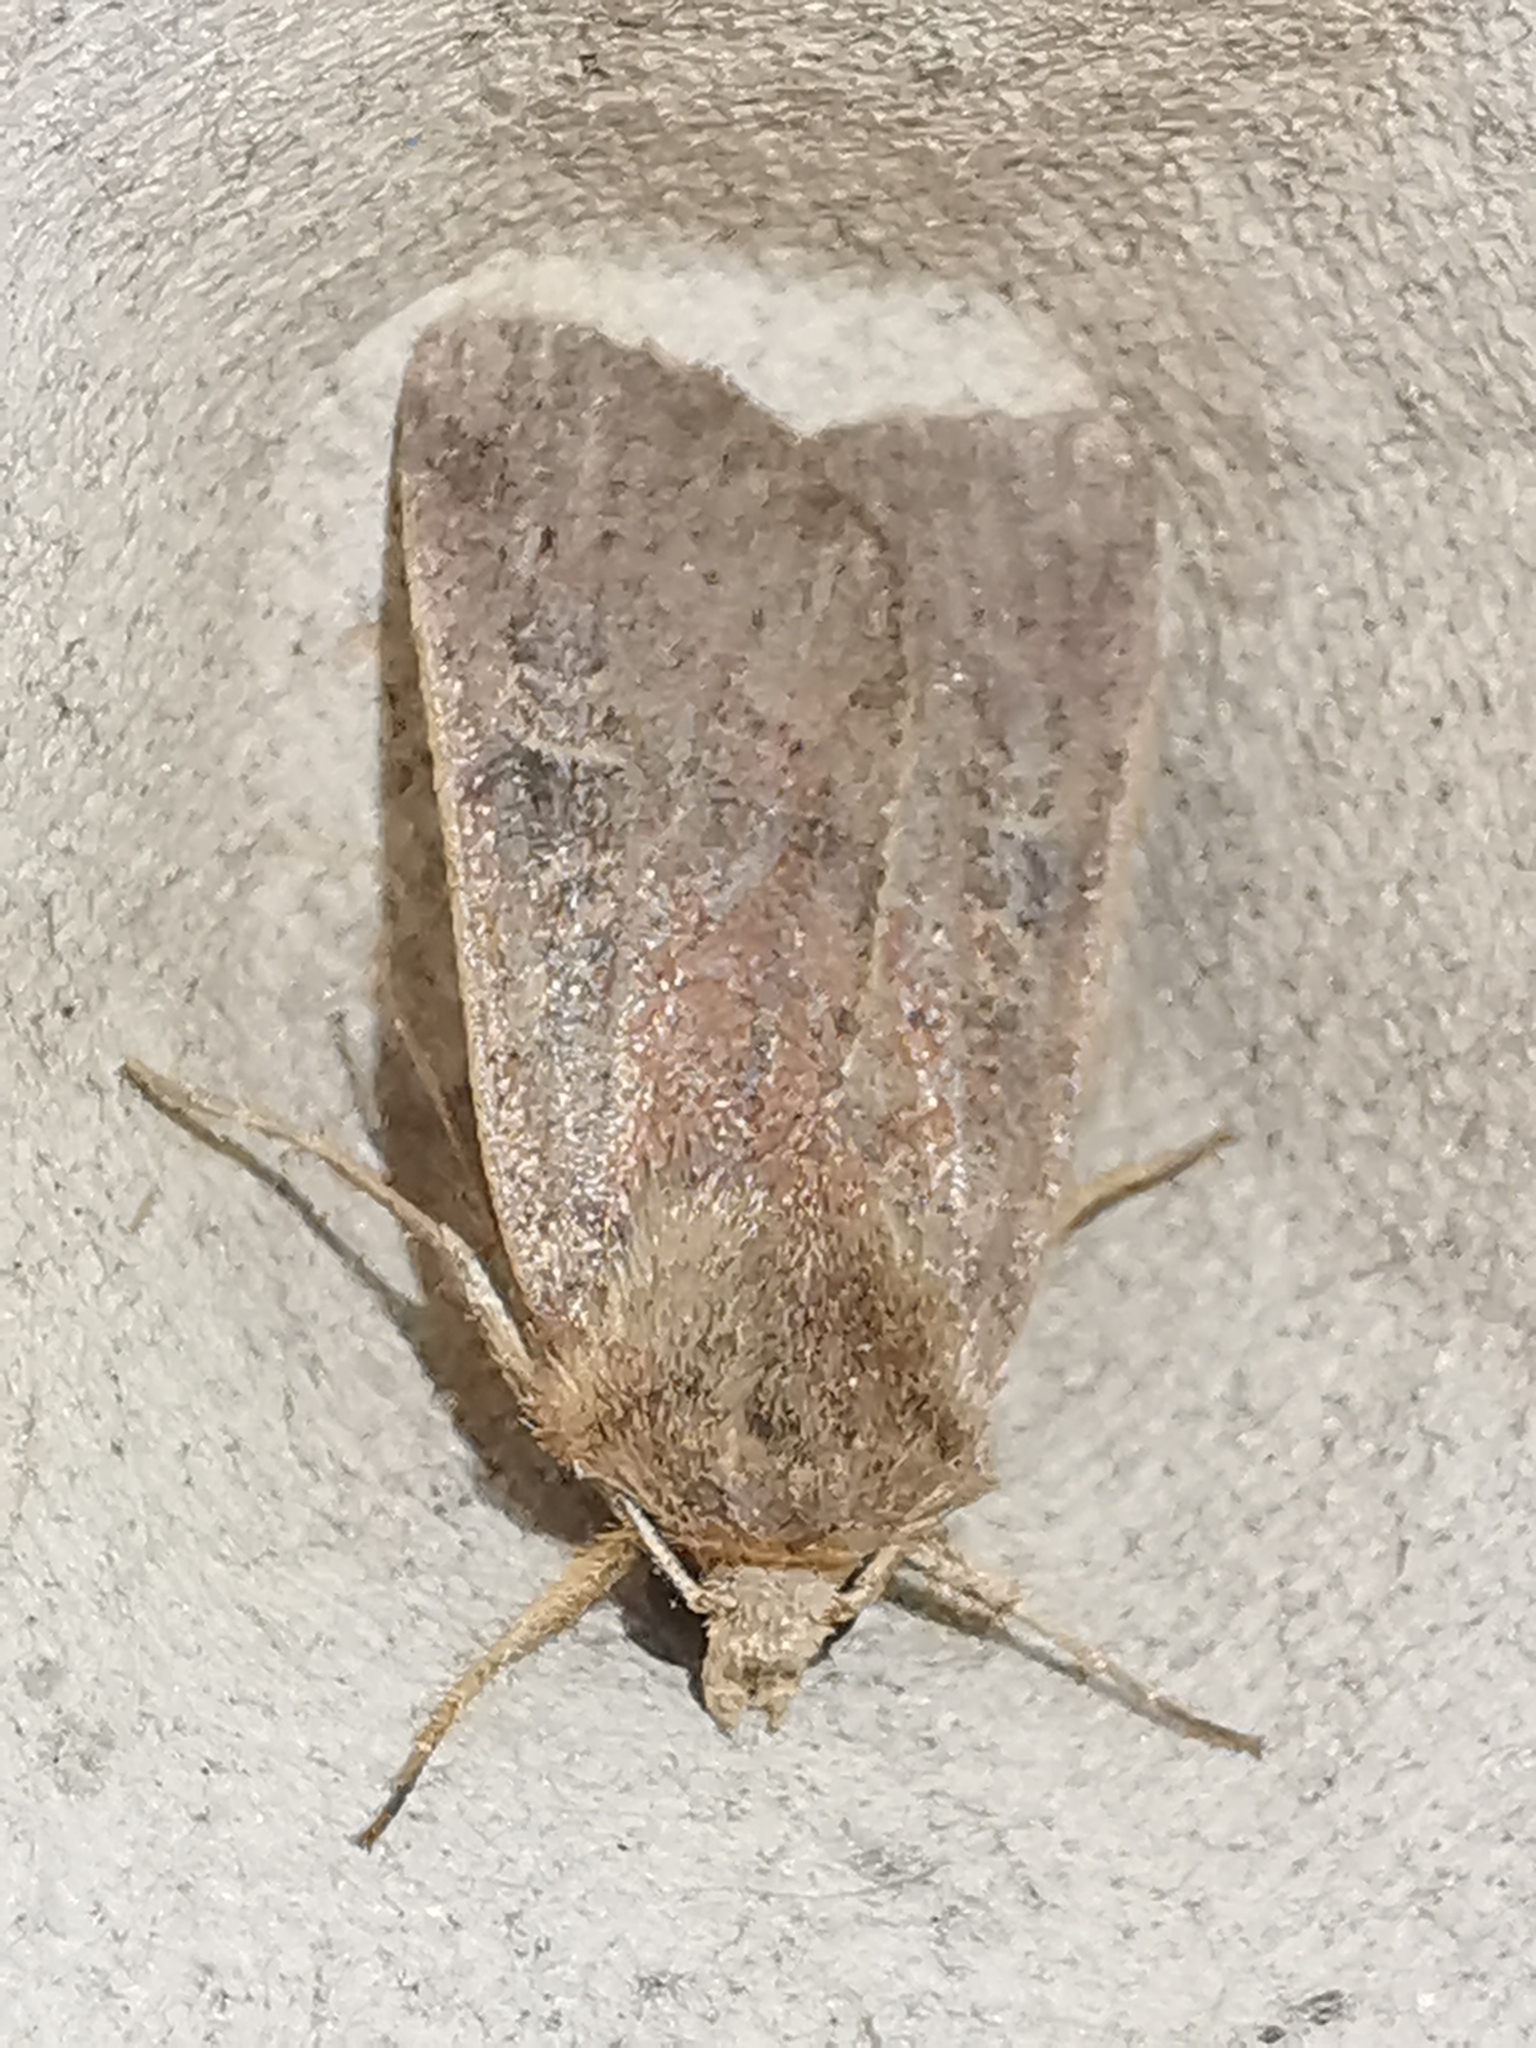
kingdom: Animalia
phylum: Arthropoda
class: Insecta
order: Lepidoptera
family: Noctuidae
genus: Xestia
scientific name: Xestia xanthographa
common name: Square-spot rustic
